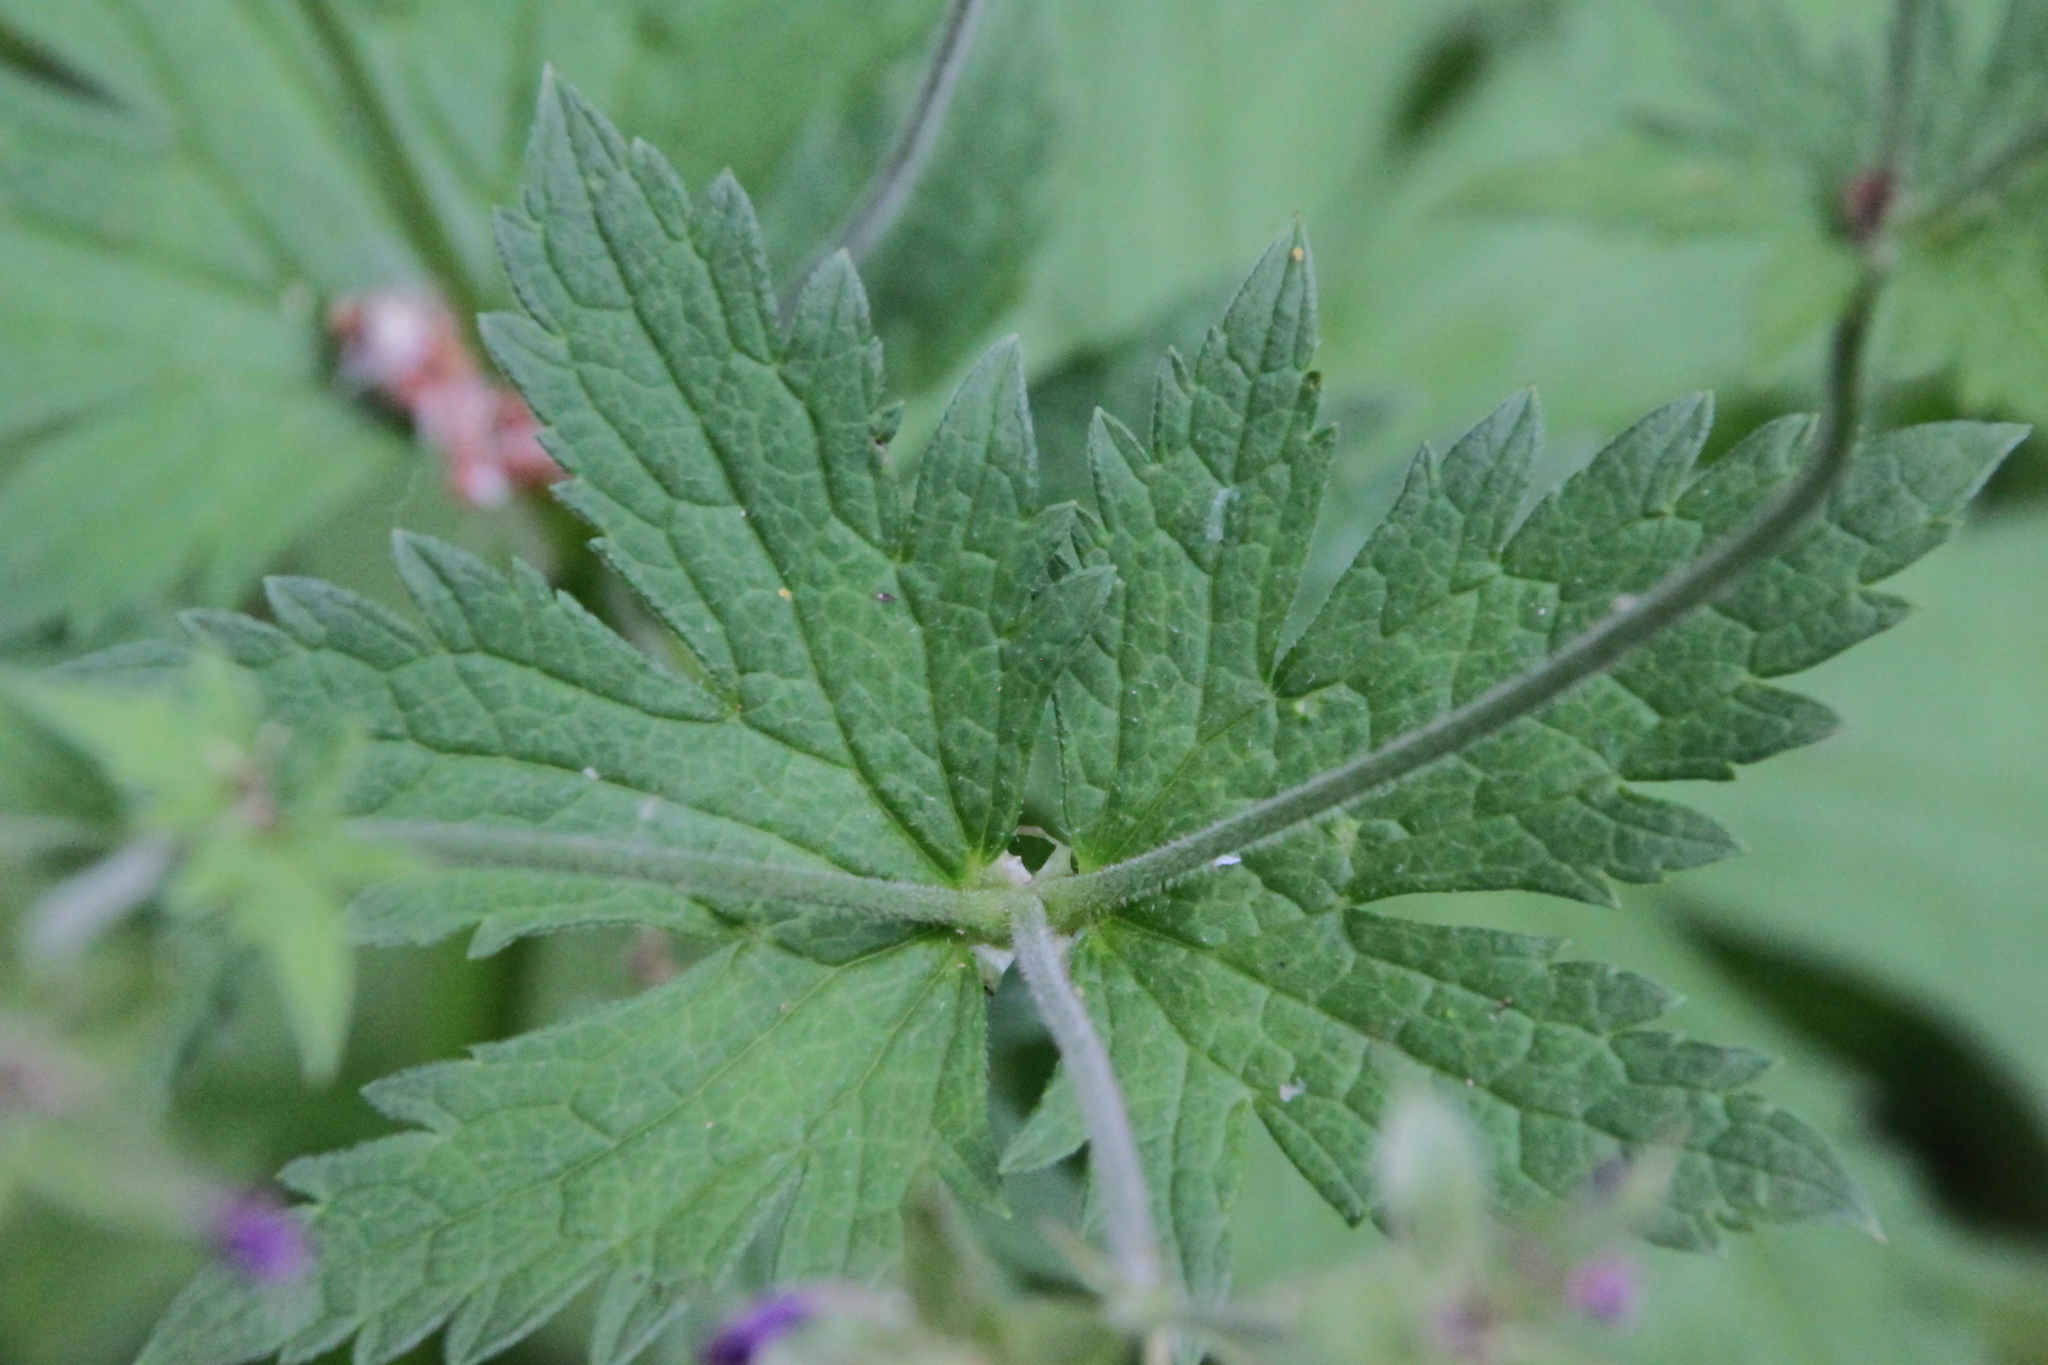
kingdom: Plantae
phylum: Tracheophyta
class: Magnoliopsida
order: Geraniales
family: Geraniaceae
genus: Geranium
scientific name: Geranium sylvaticum
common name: Wood crane's-bill
